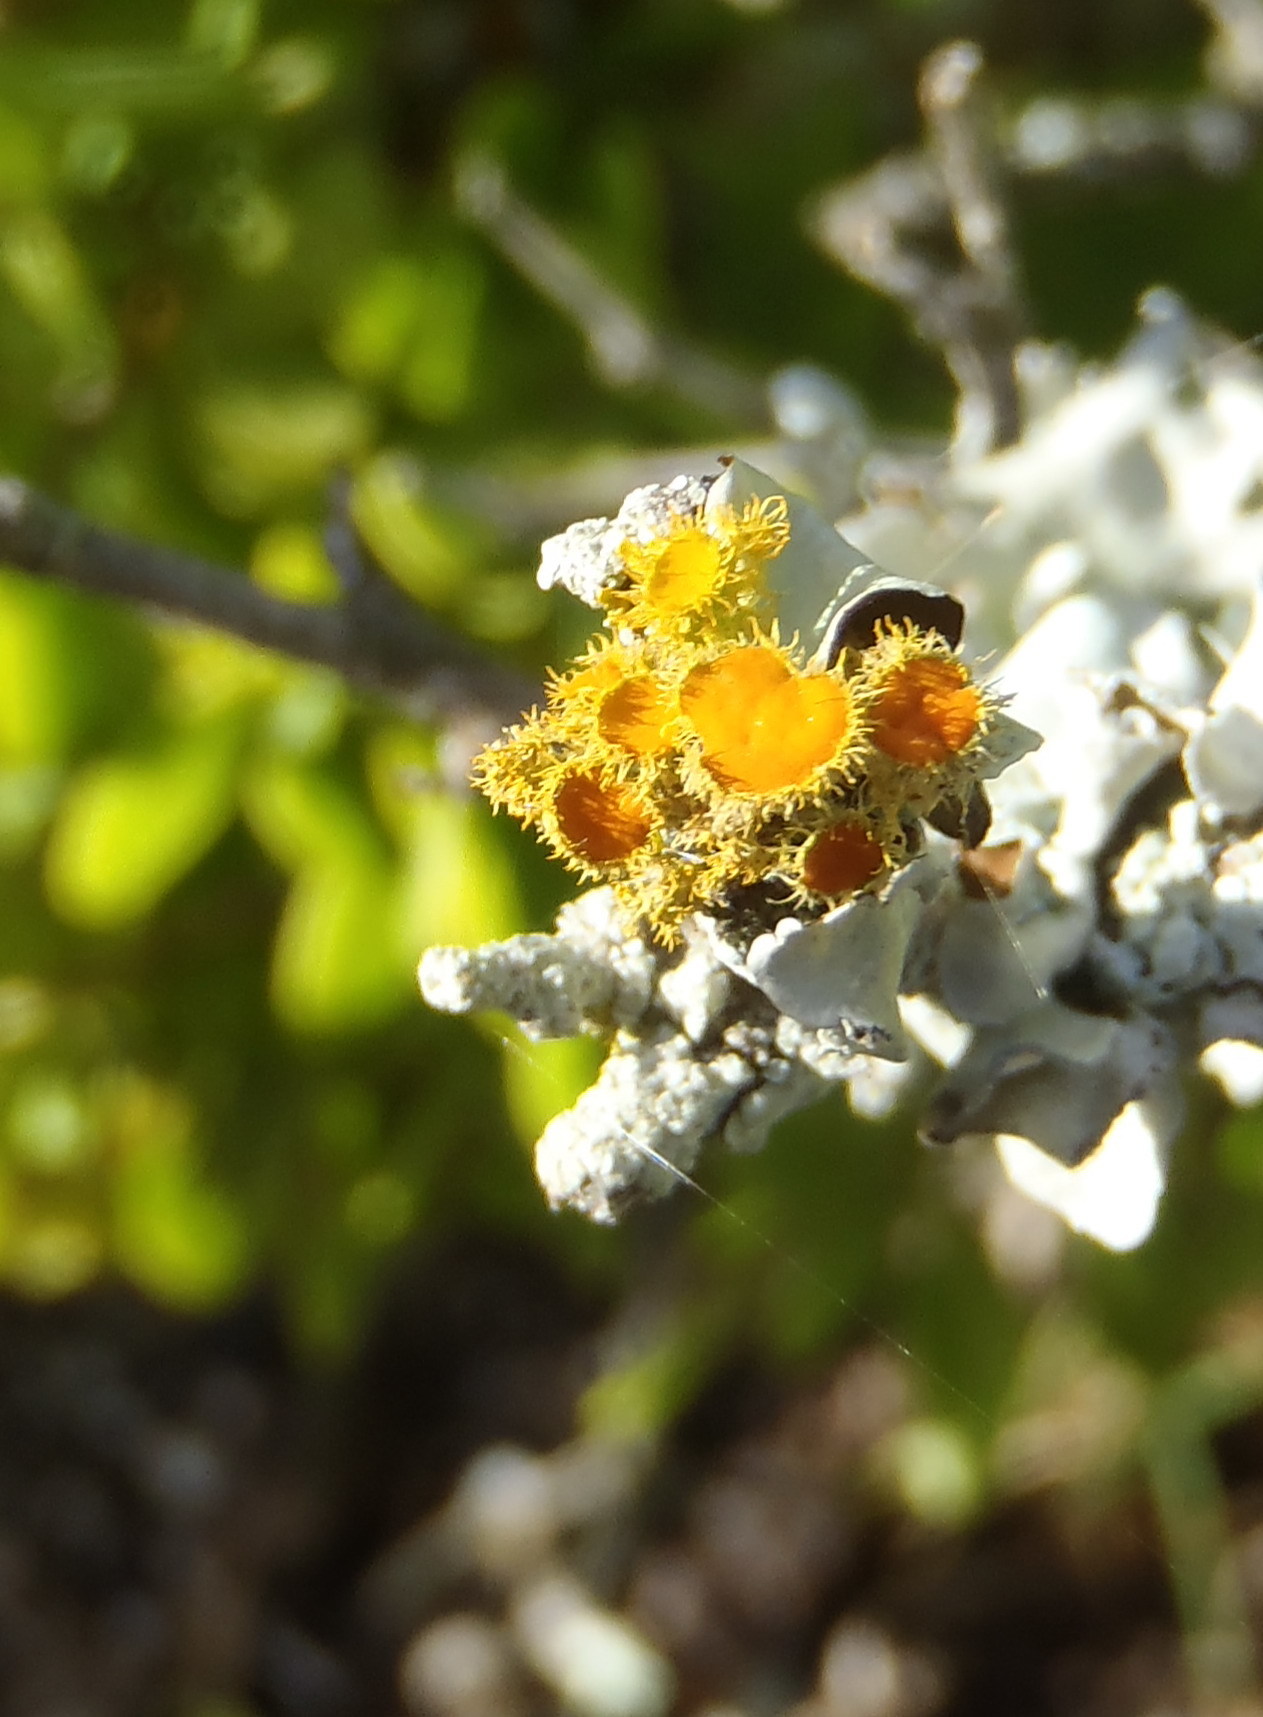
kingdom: Fungi
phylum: Ascomycota
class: Lecanoromycetes
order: Teloschistales
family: Teloschistaceae
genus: Niorma
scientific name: Niorma chrysophthalma
